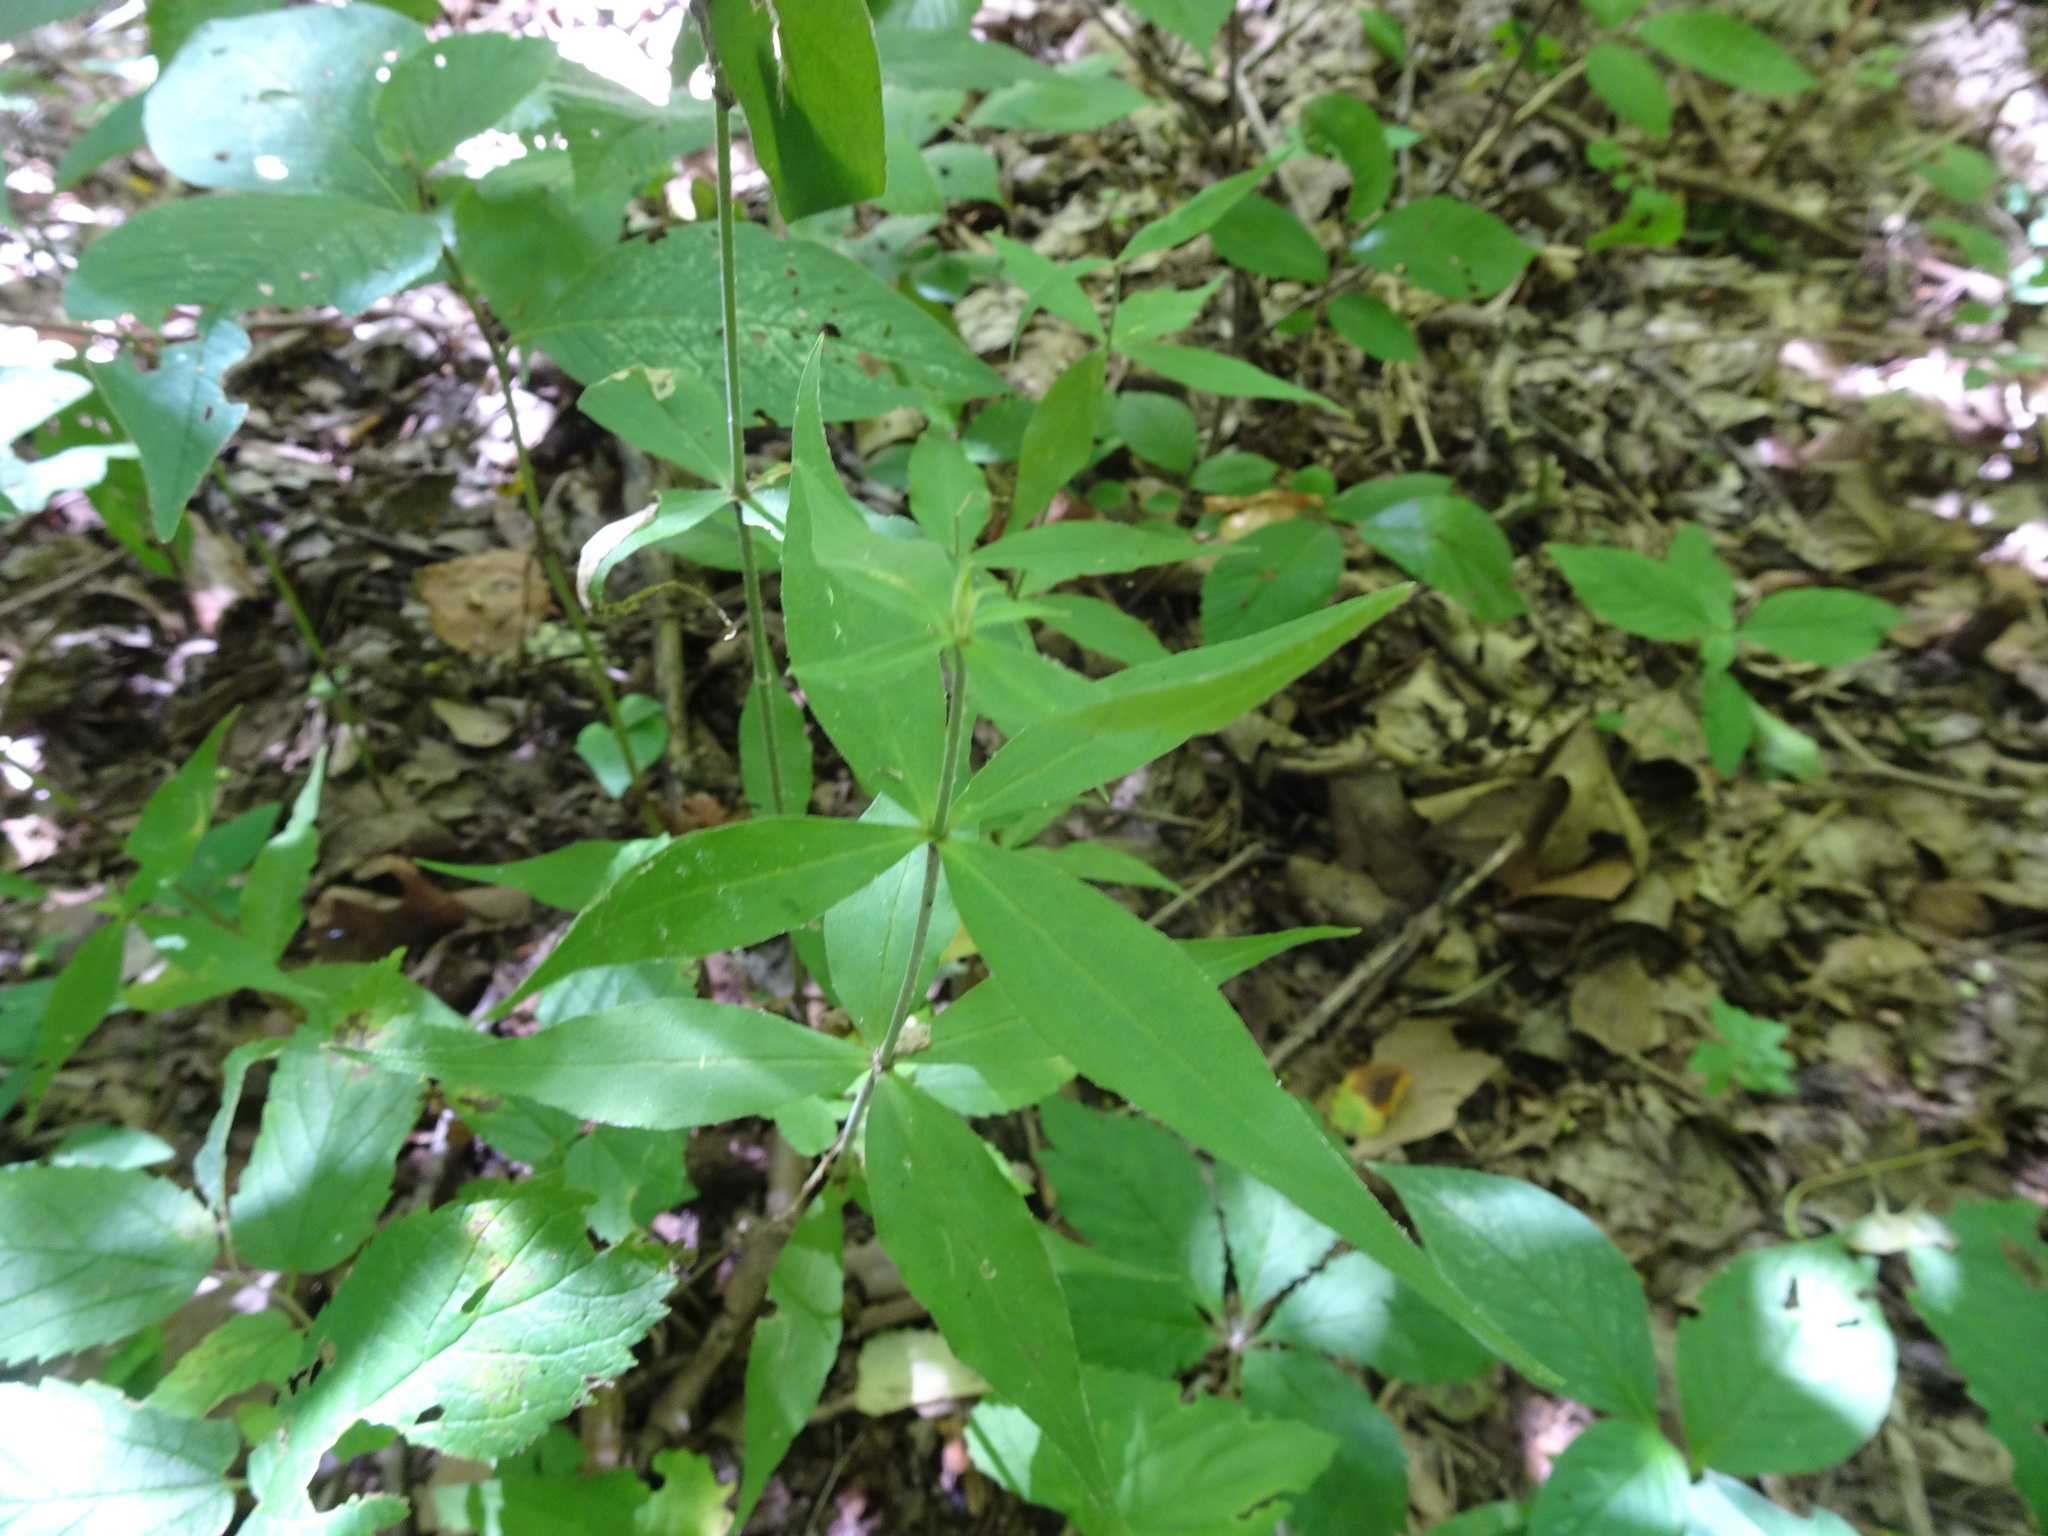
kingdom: Plantae
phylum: Tracheophyta
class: Magnoliopsida
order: Caryophyllales
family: Caryophyllaceae
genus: Silene
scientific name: Silene stellata
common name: Starry campion
